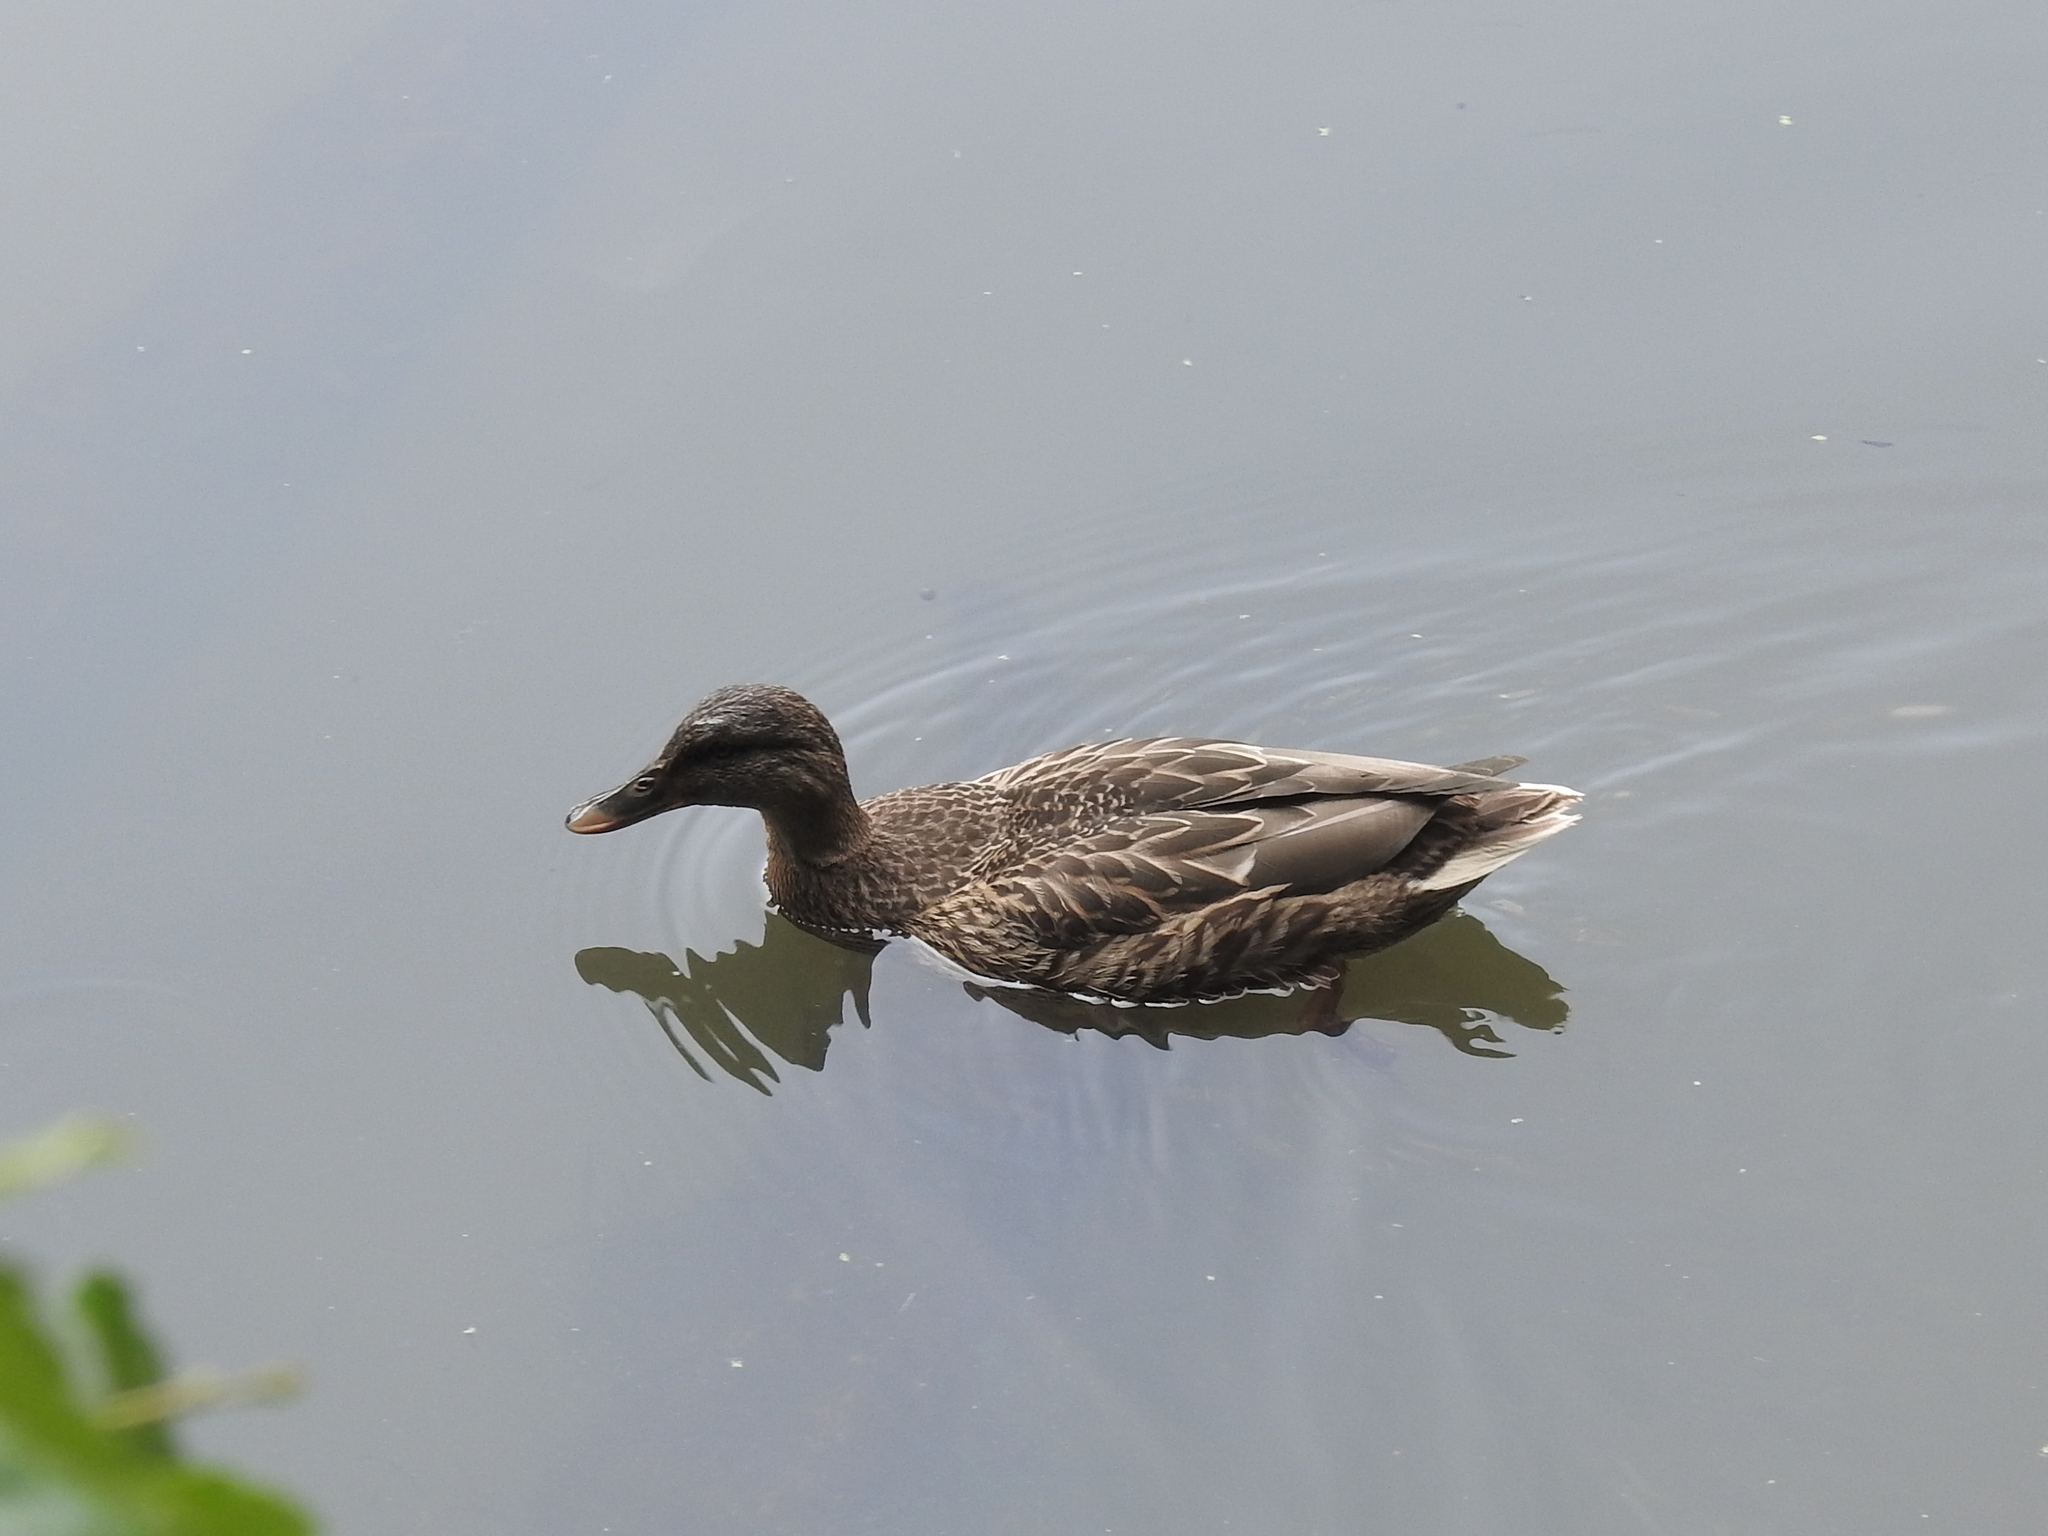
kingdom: Animalia
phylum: Chordata
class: Aves
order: Anseriformes
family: Anatidae
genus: Anas
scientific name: Anas platyrhynchos
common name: Mallard
